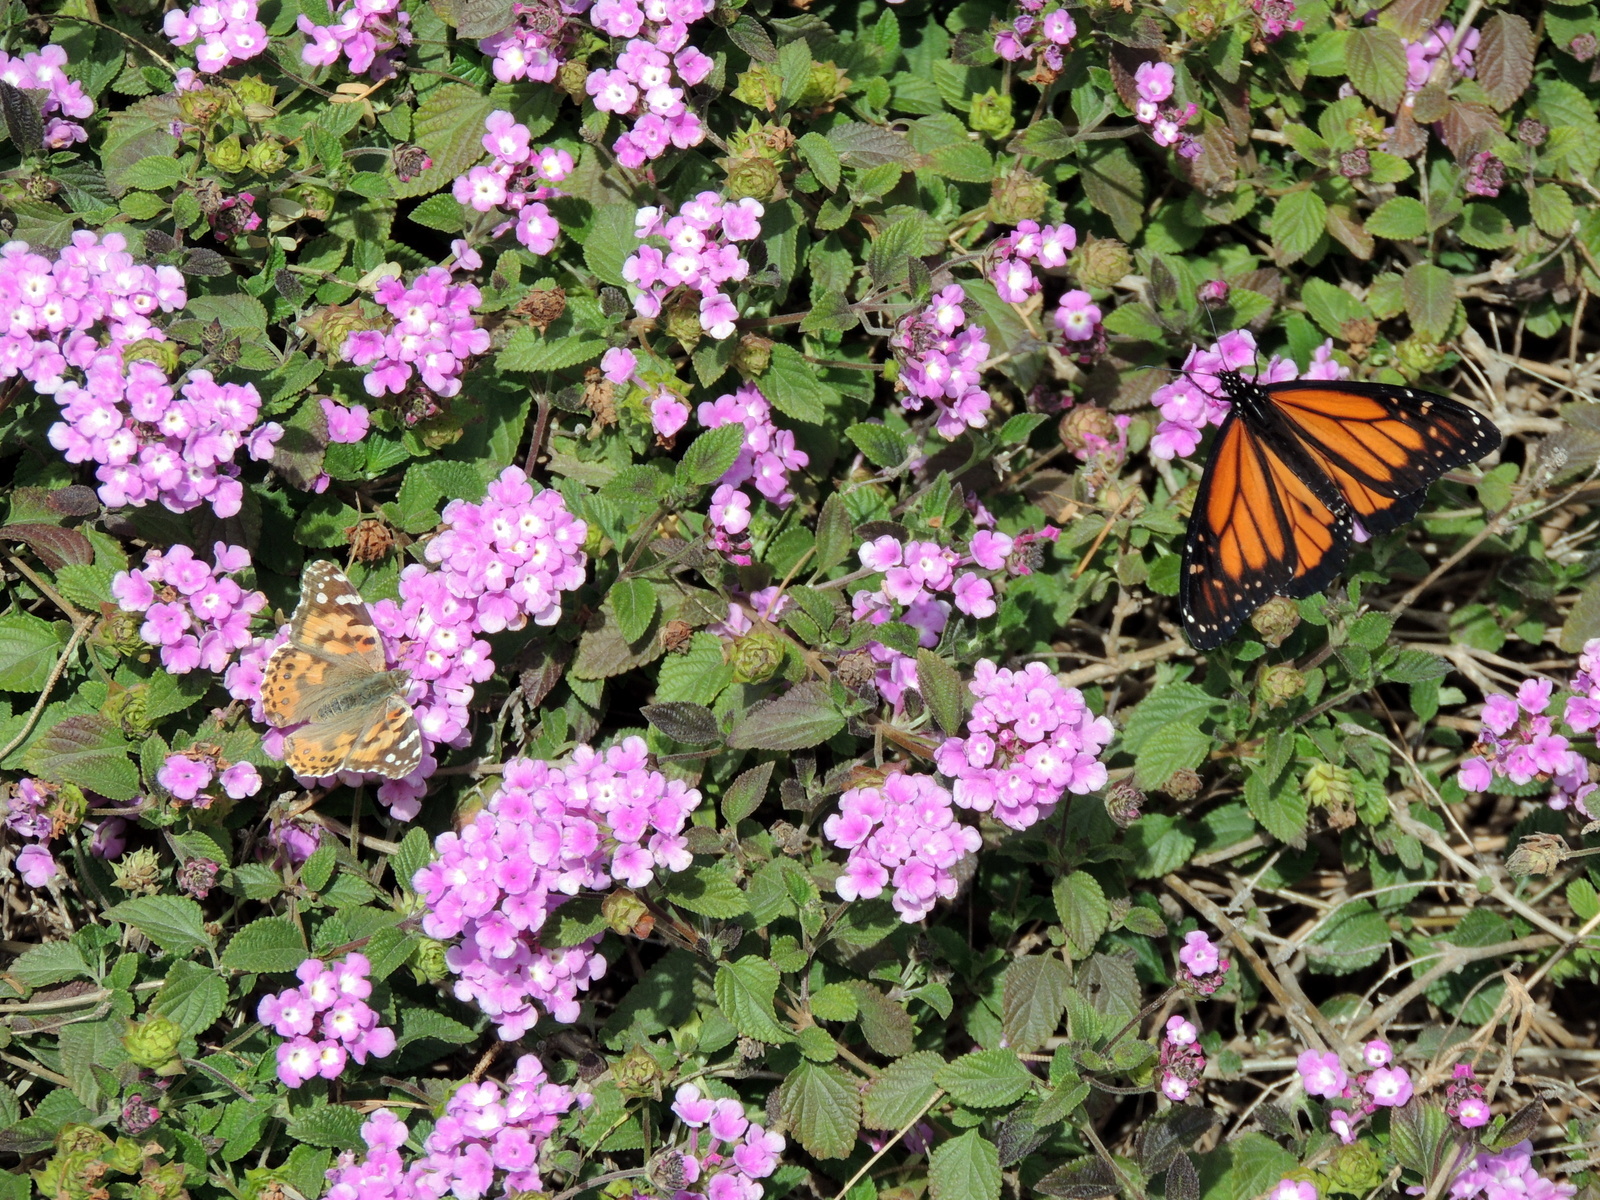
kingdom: Animalia
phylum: Arthropoda
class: Insecta
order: Lepidoptera
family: Nymphalidae
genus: Danaus
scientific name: Danaus plexippus
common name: Monarch
